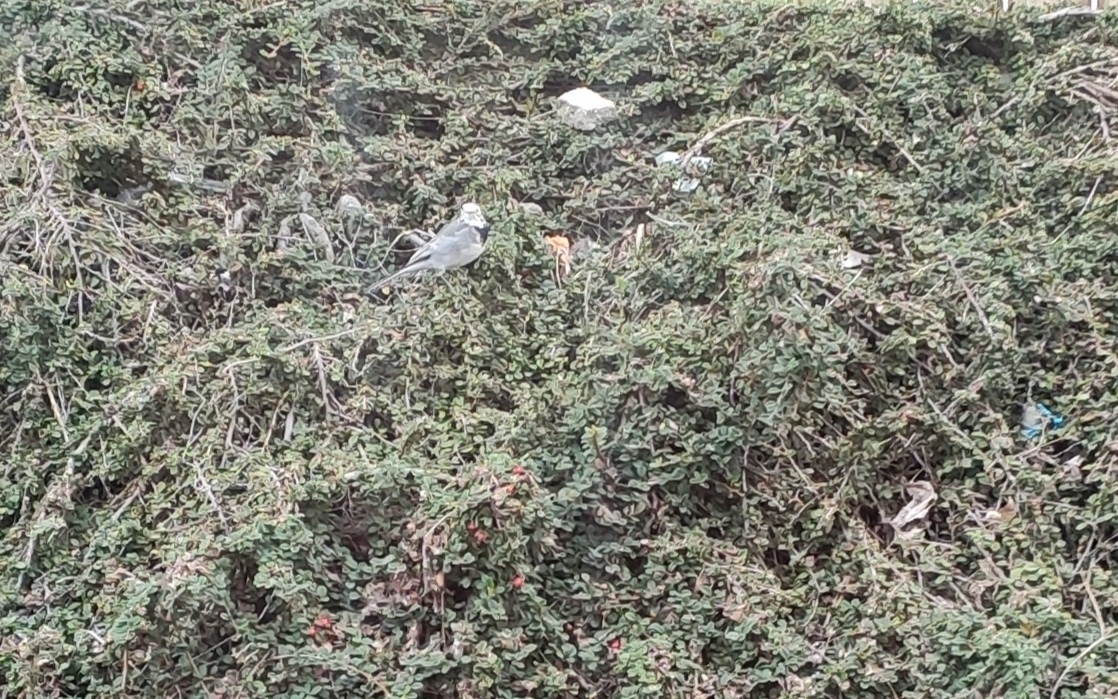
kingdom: Animalia
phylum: Chordata
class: Aves
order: Passeriformes
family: Motacillidae
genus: Motacilla
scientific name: Motacilla alba
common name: White wagtail
